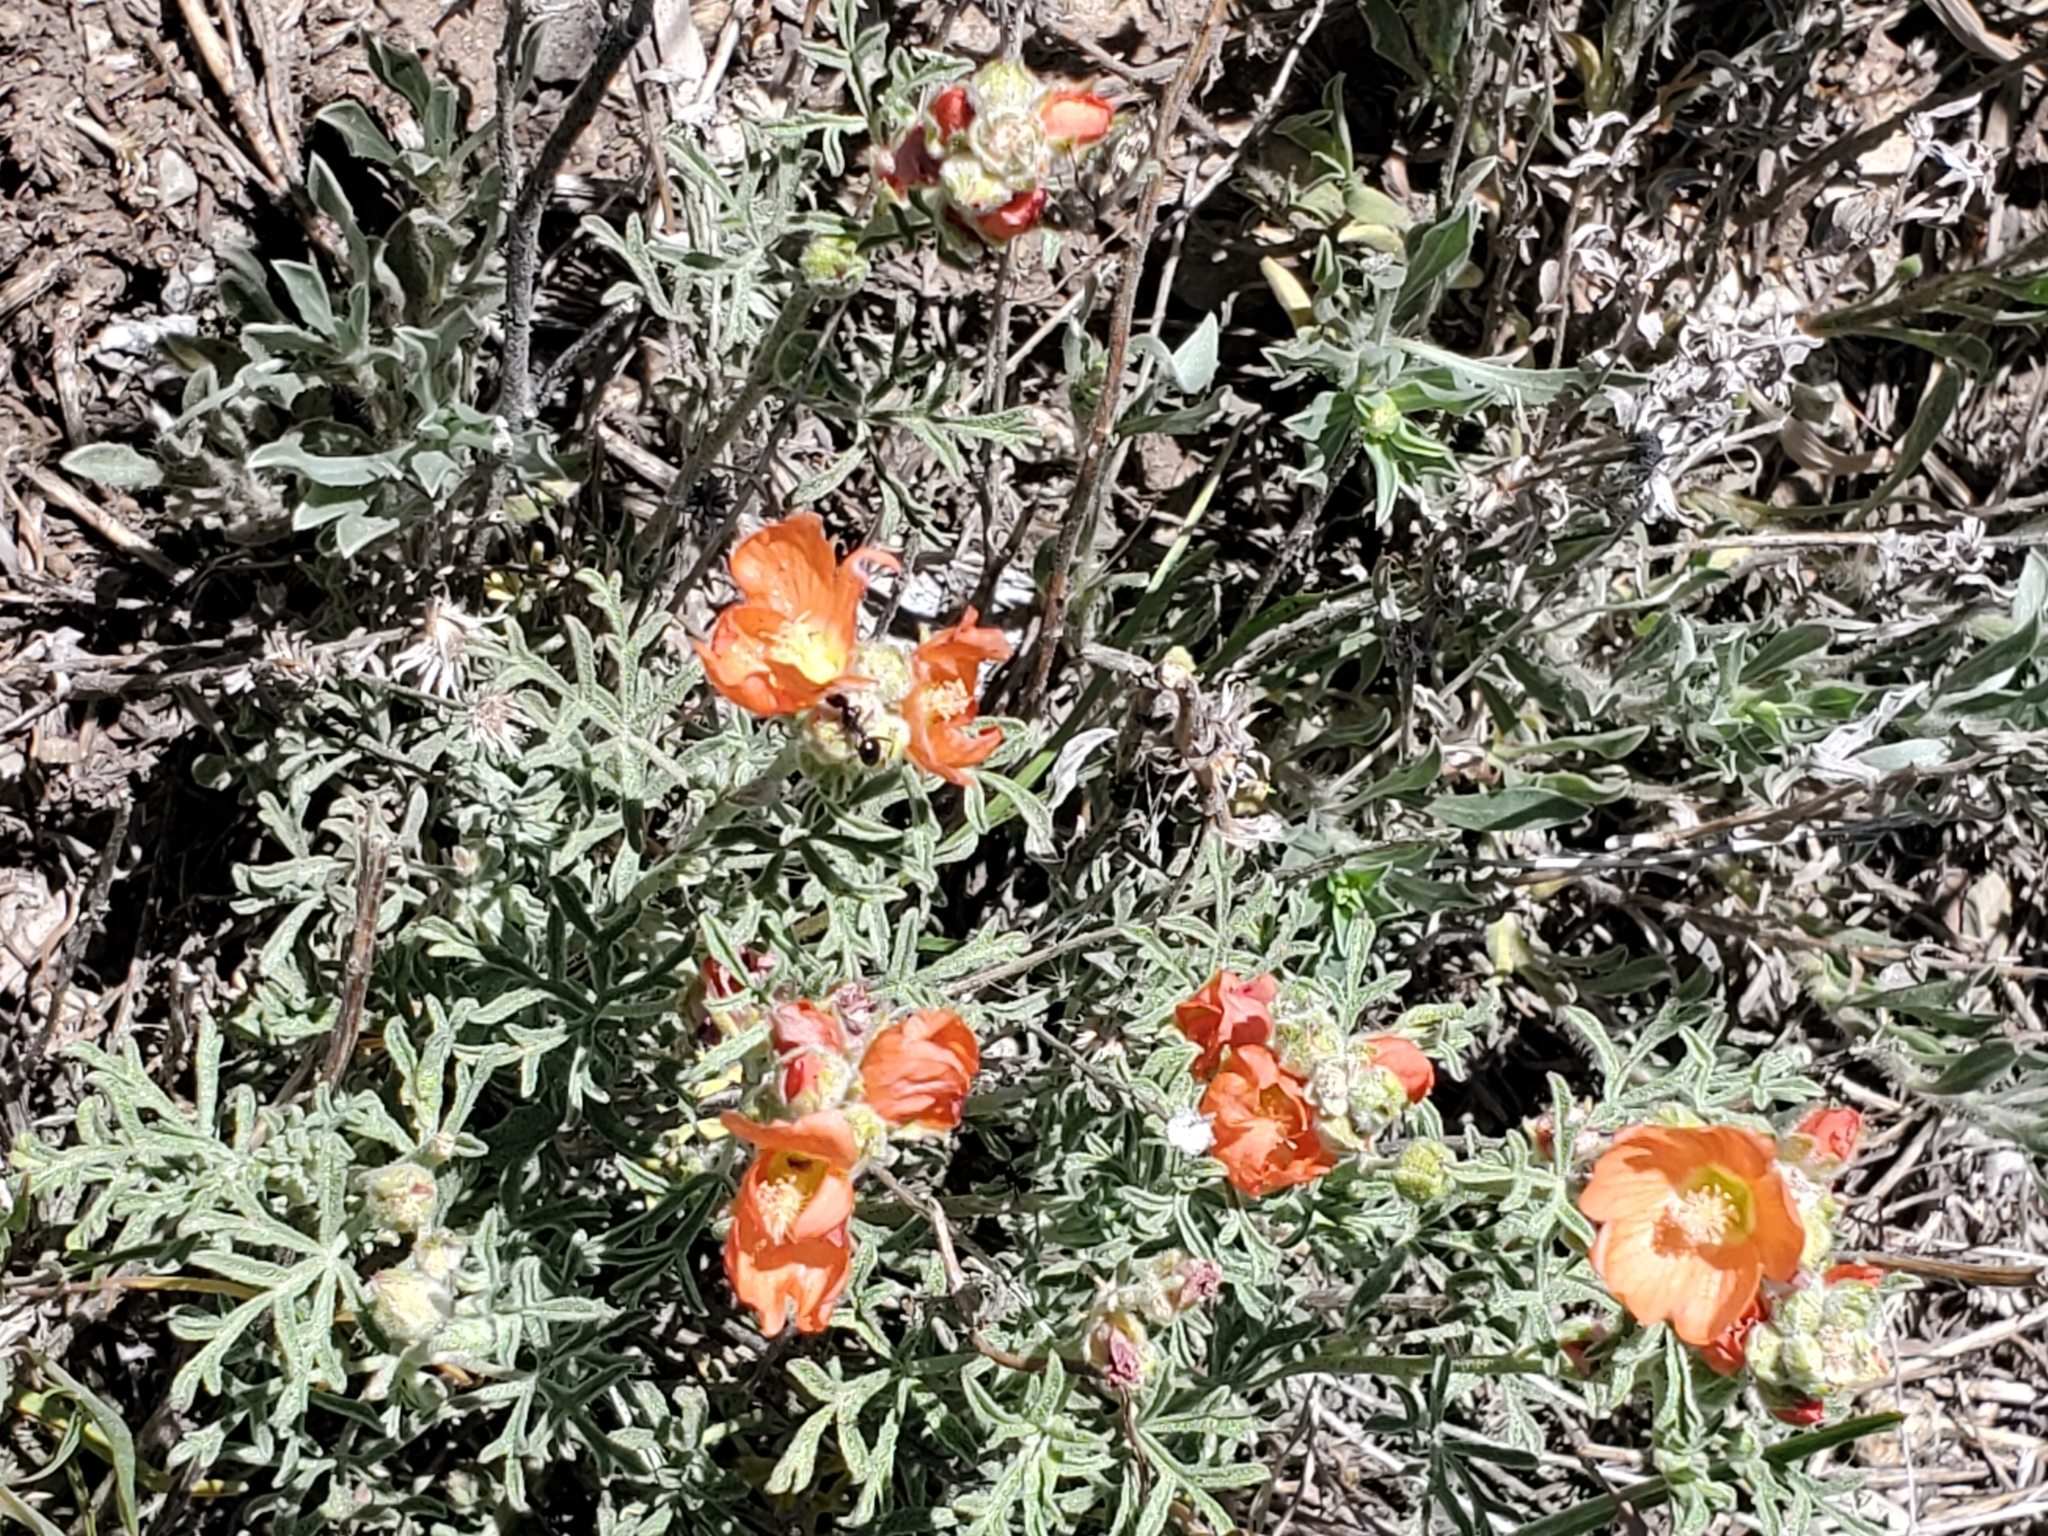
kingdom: Plantae
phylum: Tracheophyta
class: Magnoliopsida
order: Malvales
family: Malvaceae
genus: Sphaeralcea
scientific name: Sphaeralcea coccinea
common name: Moss-rose
